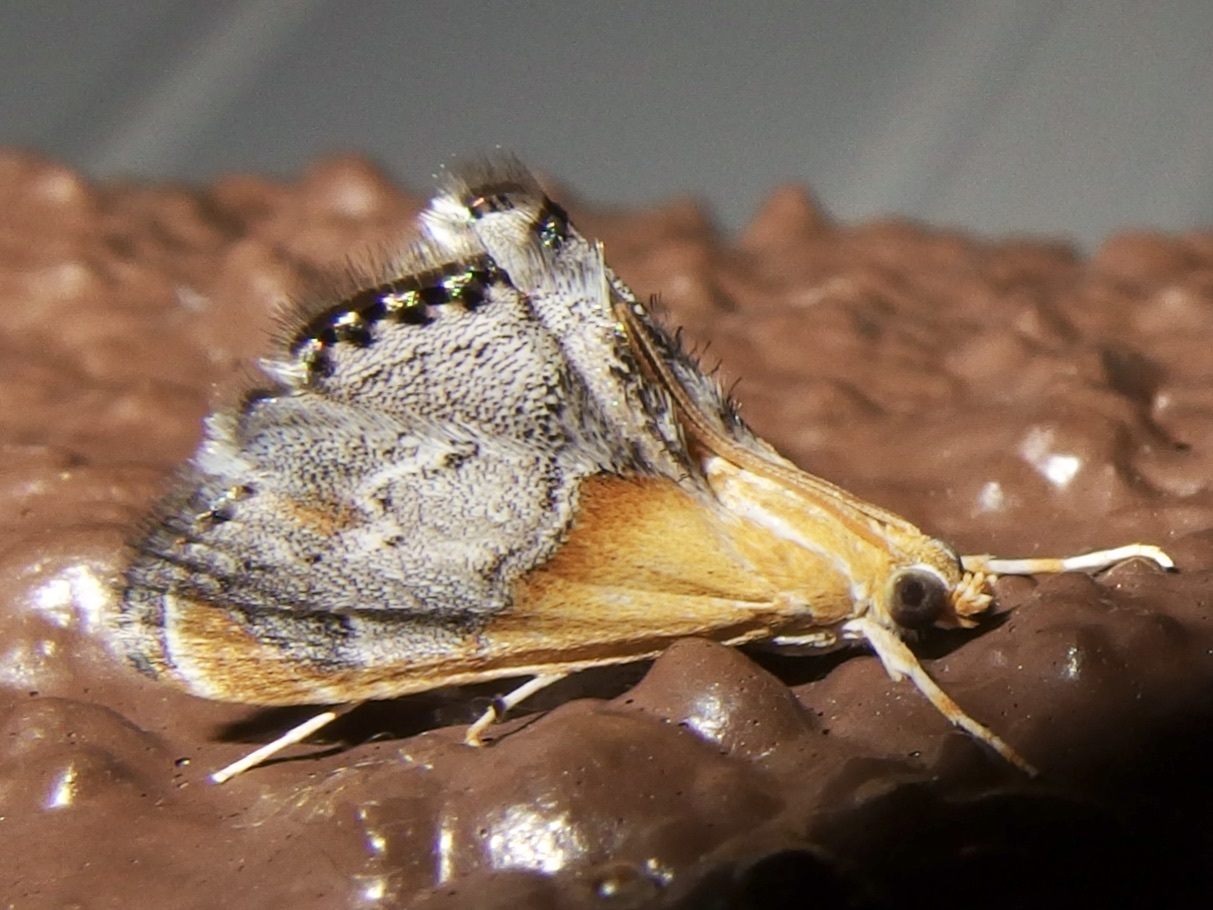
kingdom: Animalia
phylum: Arthropoda
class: Insecta
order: Lepidoptera
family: Crambidae
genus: Chalcoela
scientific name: Chalcoela iphitalis
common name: Sooty-winged chalcoela moth
